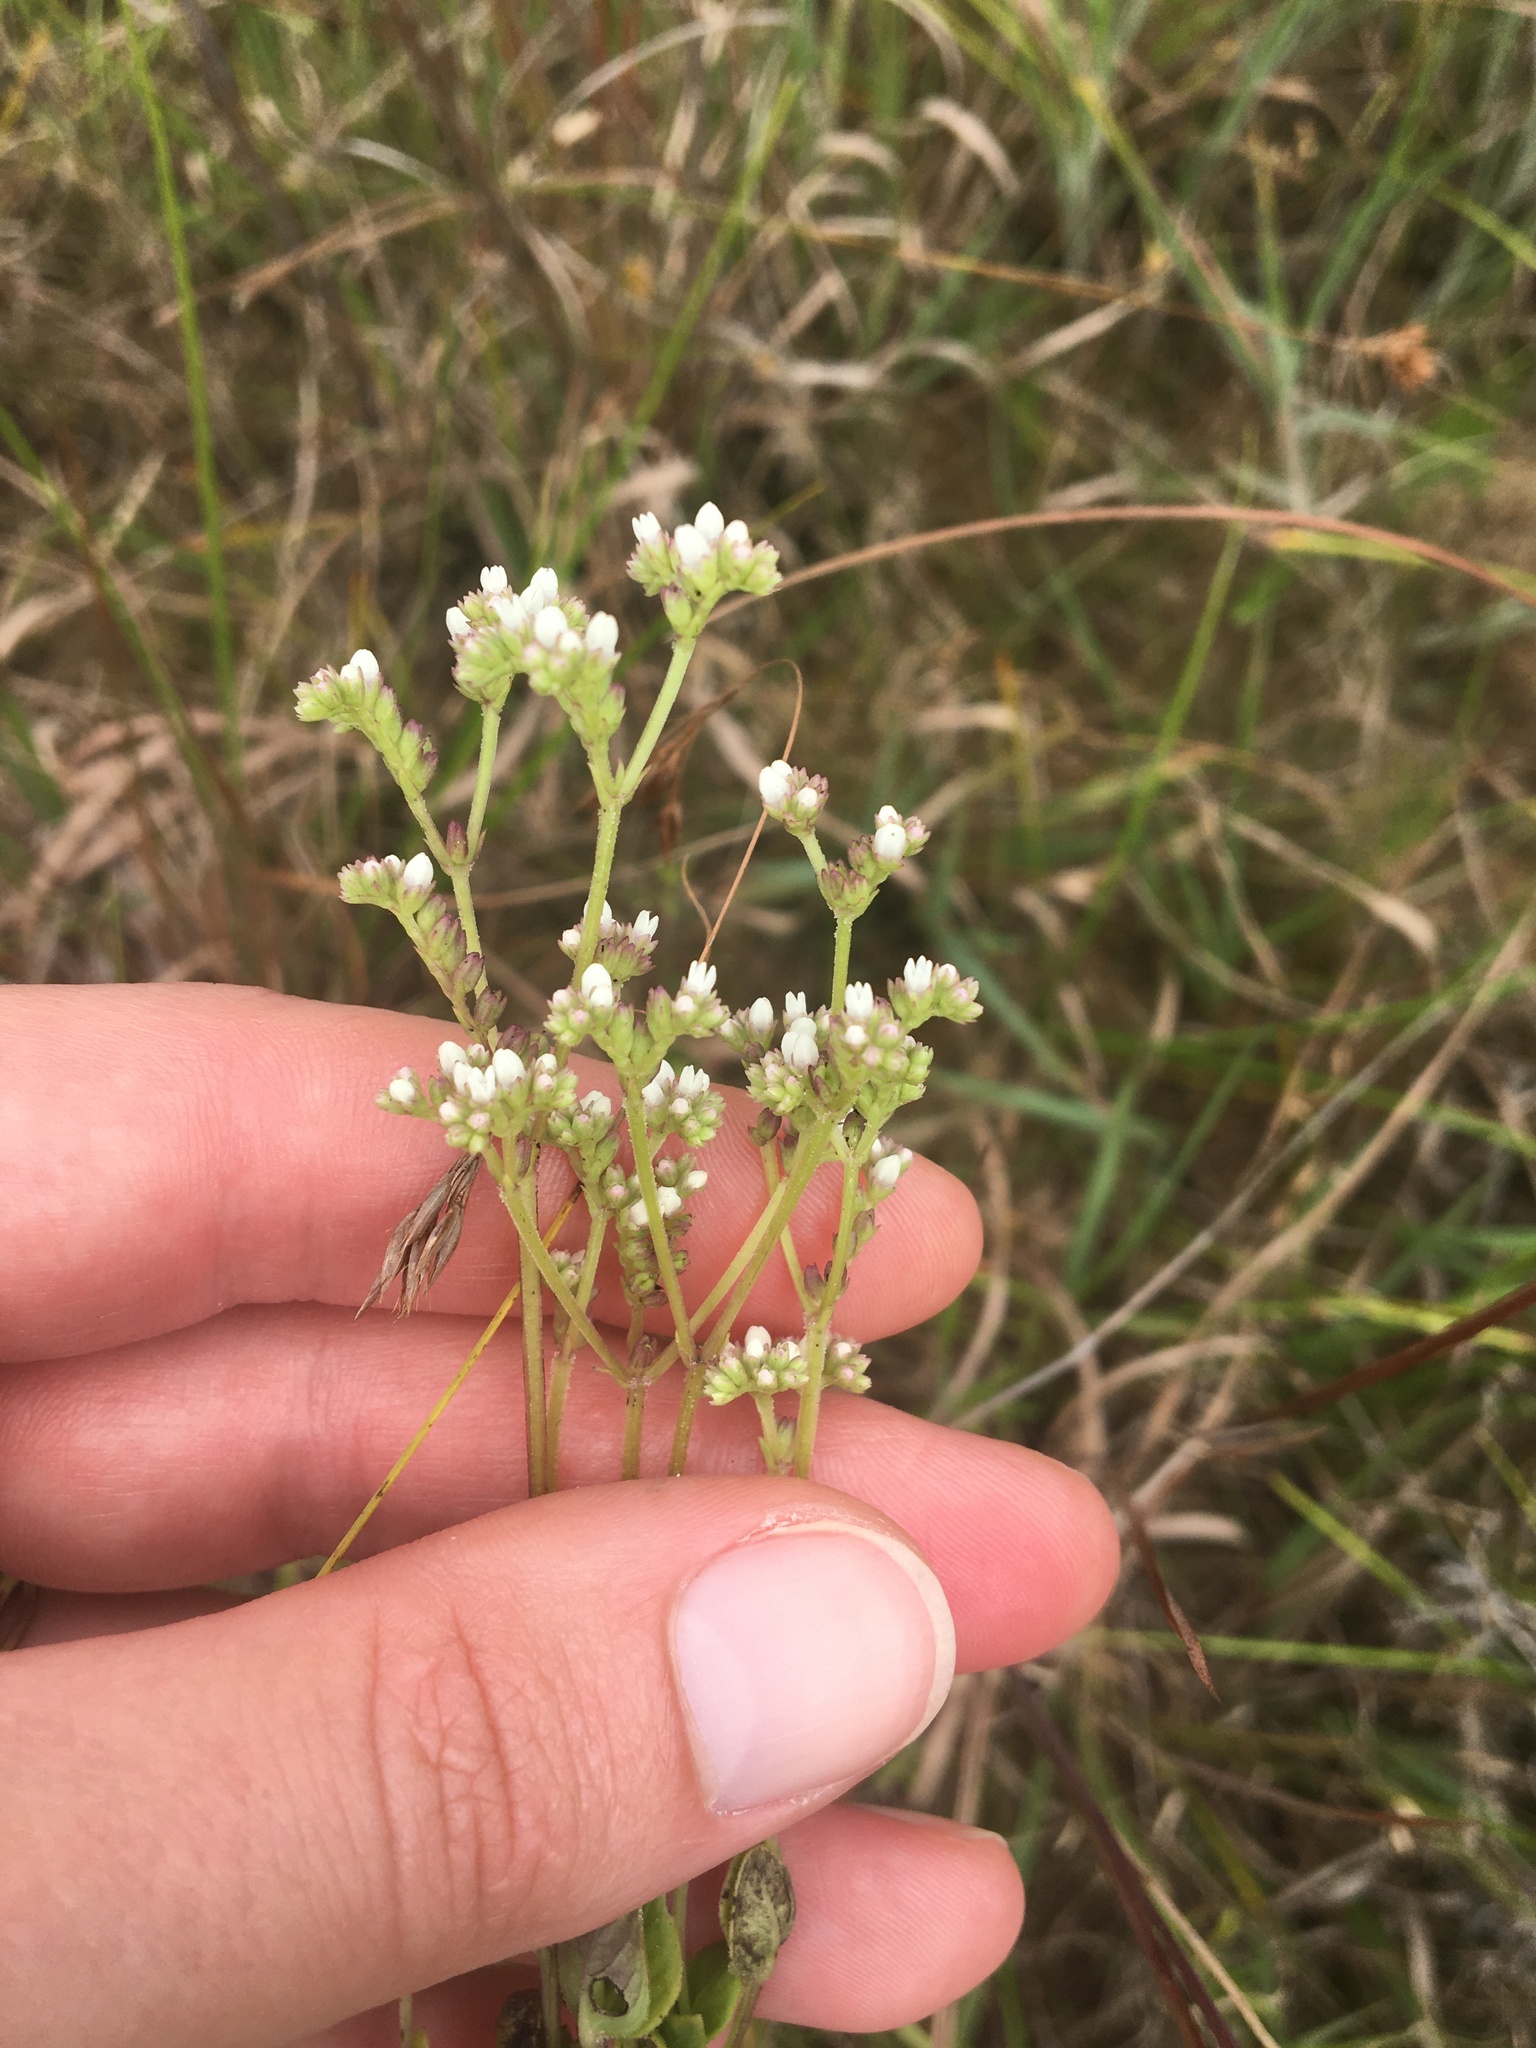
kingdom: Plantae
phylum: Tracheophyta
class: Magnoliopsida
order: Gentianales
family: Loganiaceae
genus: Mitreola
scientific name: Mitreola sessilifolia
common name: Swamp hornpod
